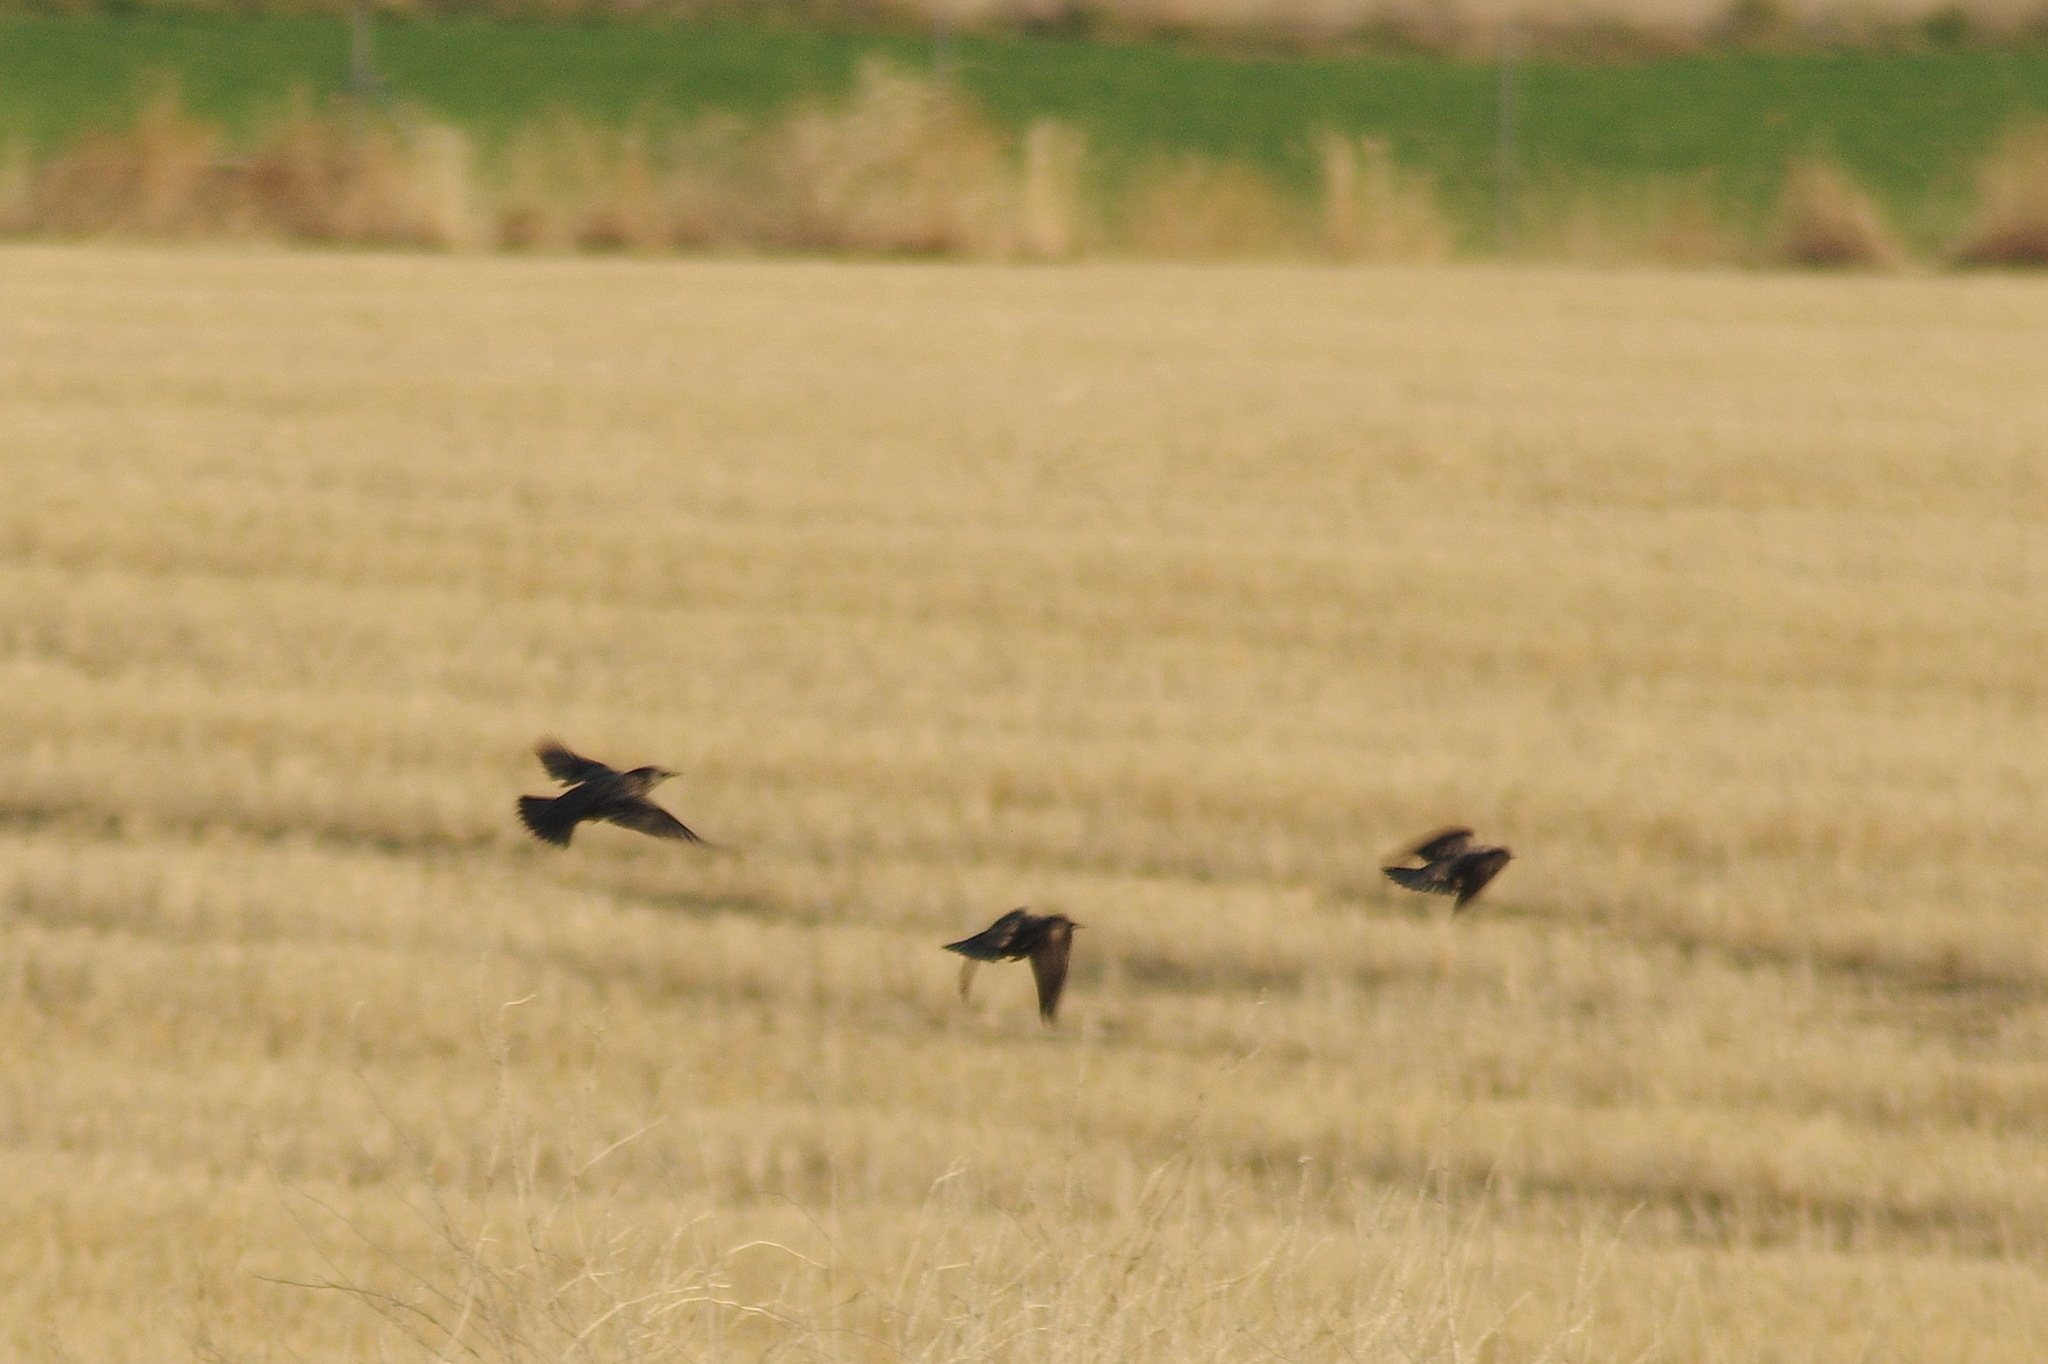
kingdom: Animalia
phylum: Chordata
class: Aves
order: Passeriformes
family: Sturnidae
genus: Sturnus
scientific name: Sturnus unicolor
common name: Spotless starling
